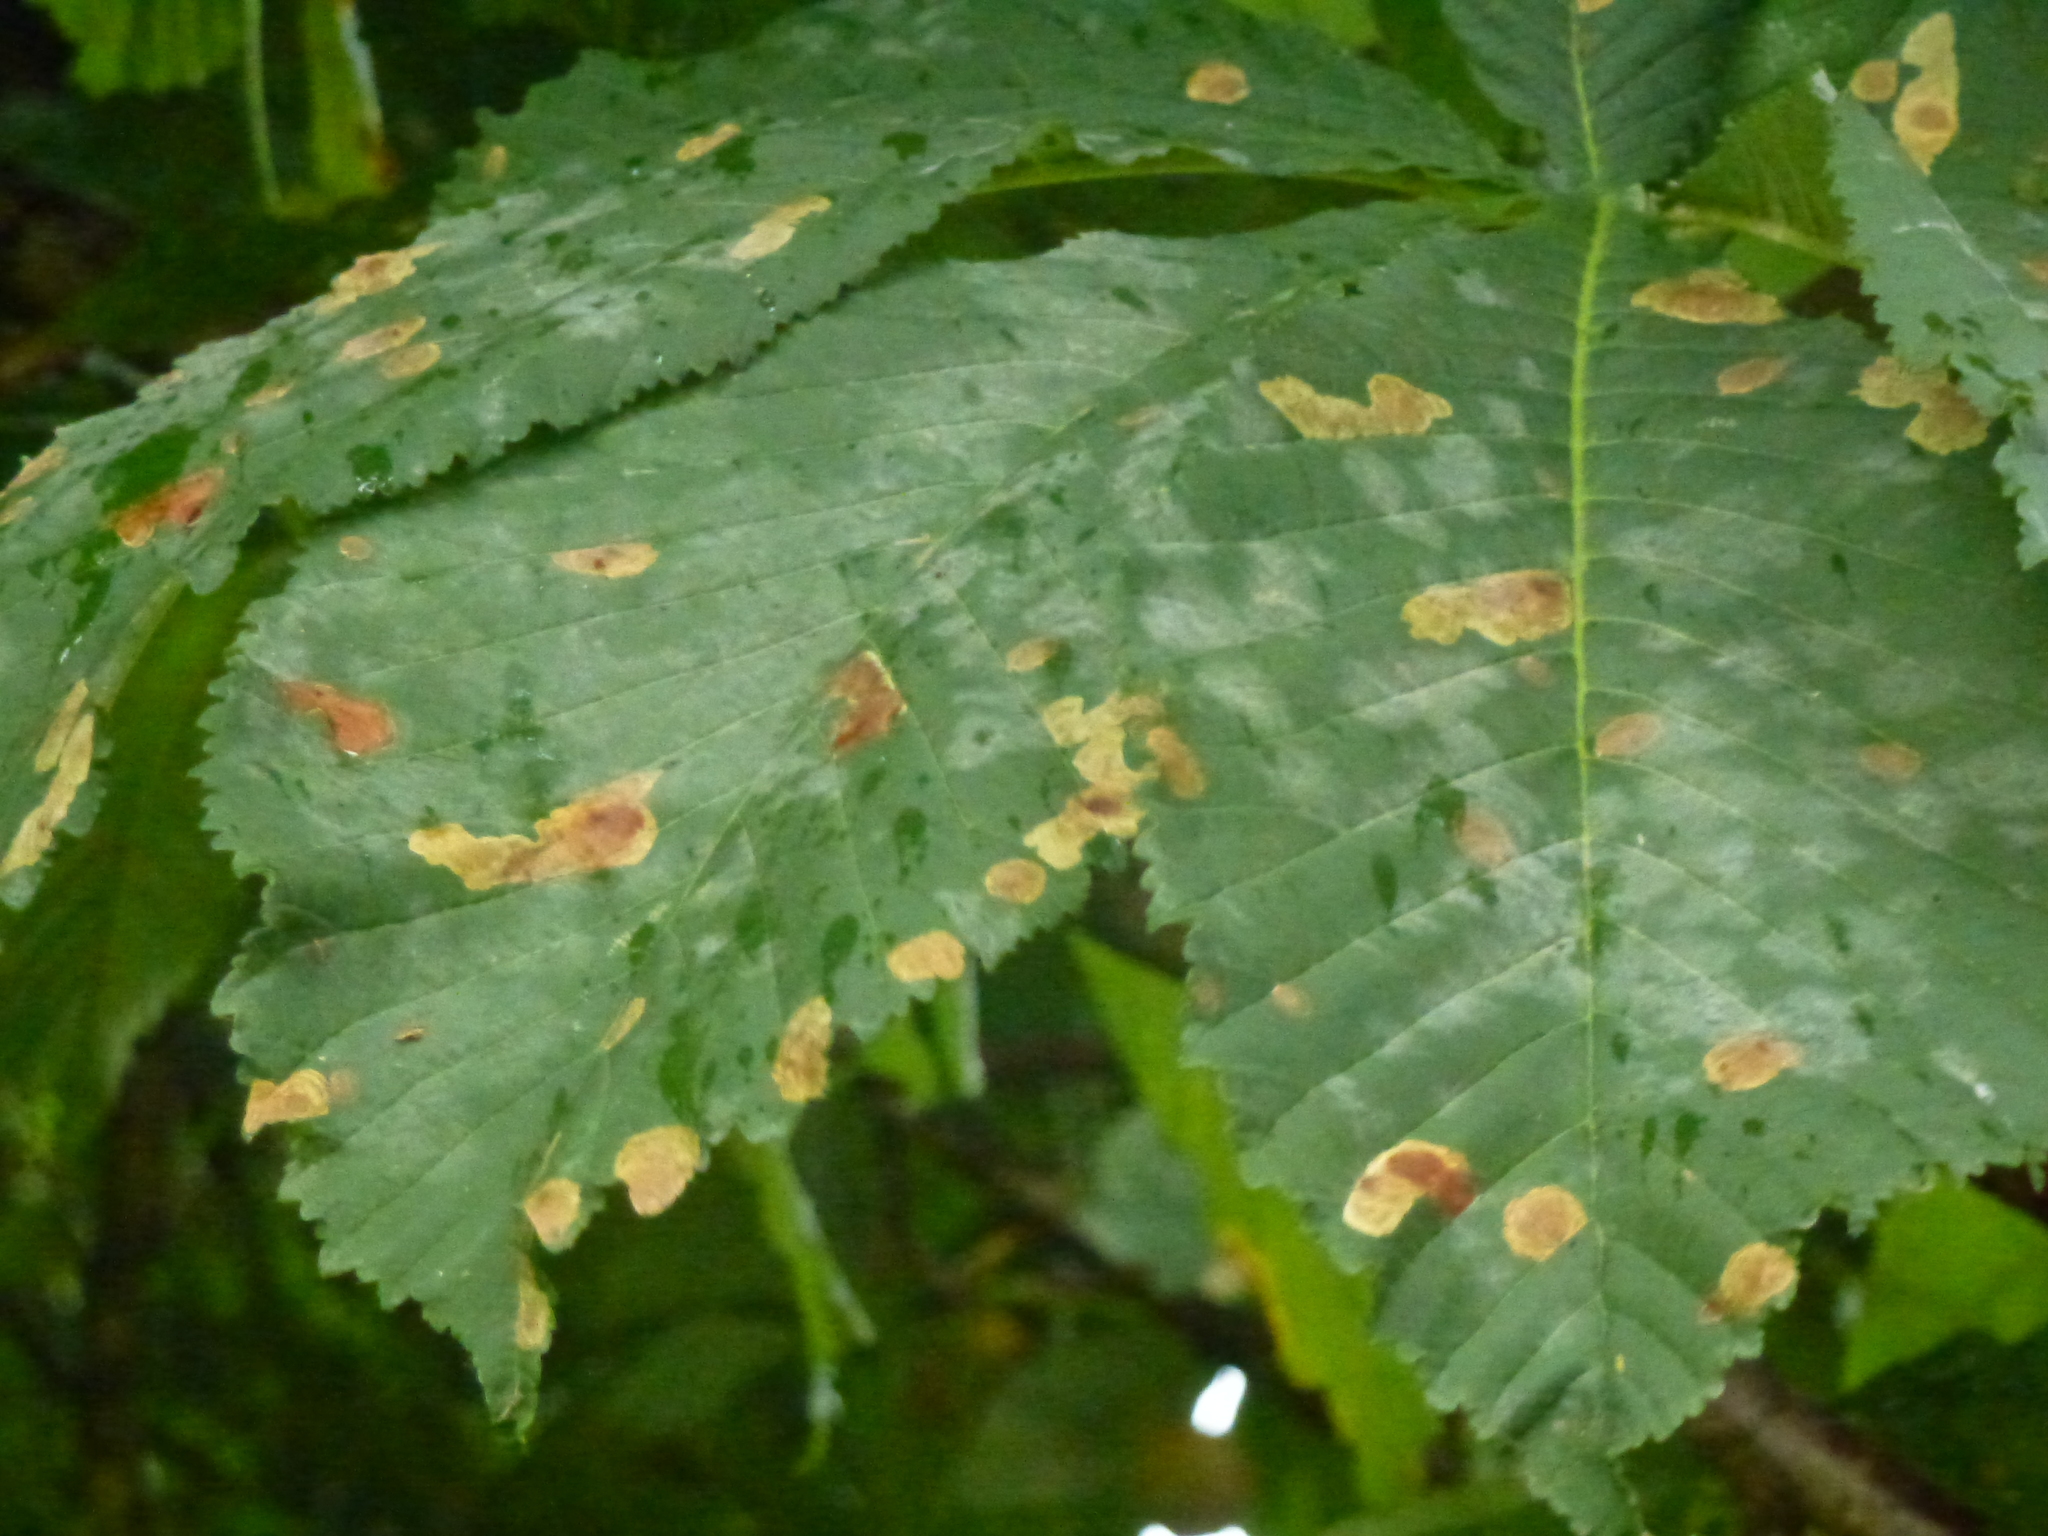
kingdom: Animalia
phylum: Arthropoda
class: Insecta
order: Lepidoptera
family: Gracillariidae
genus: Cameraria
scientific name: Cameraria ohridella
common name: Horse-chestnut leaf-miner
